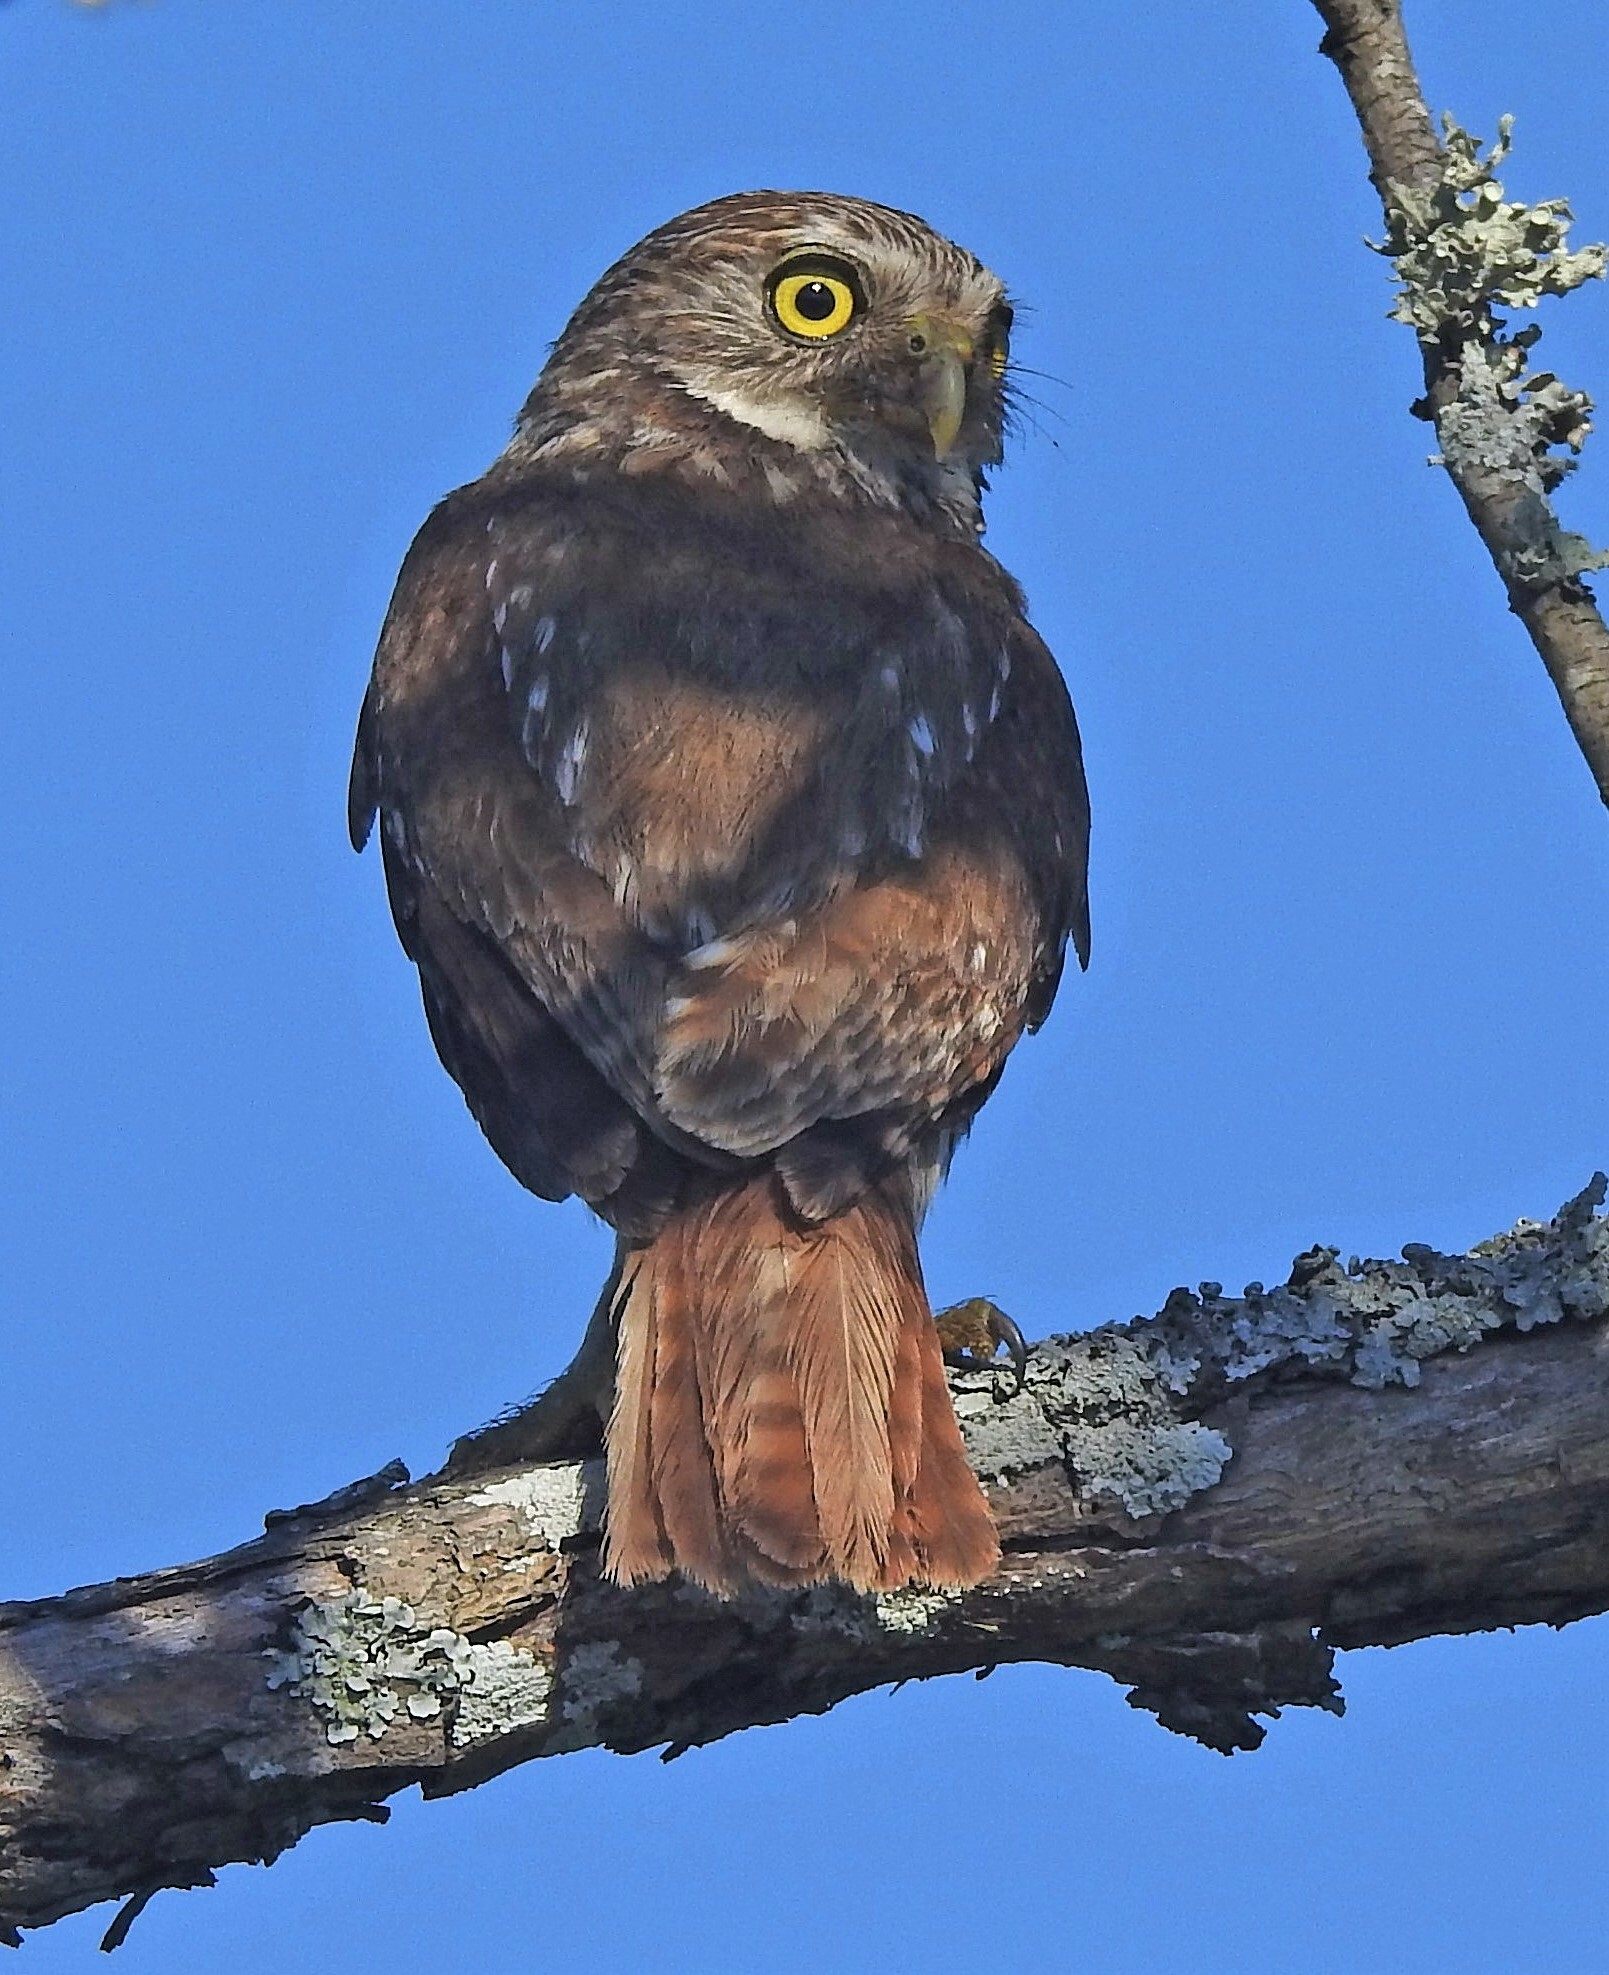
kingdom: Animalia
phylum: Chordata
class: Aves
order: Strigiformes
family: Strigidae
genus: Glaucidium
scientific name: Glaucidium brasilianum
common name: Ferruginous pygmy-owl
